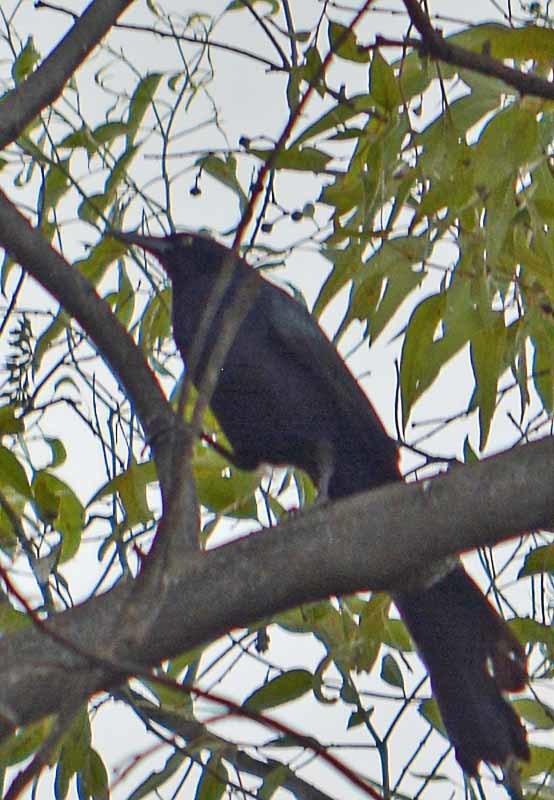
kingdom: Animalia
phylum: Chordata
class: Aves
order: Passeriformes
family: Icteridae
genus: Quiscalus
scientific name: Quiscalus mexicanus
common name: Great-tailed grackle
